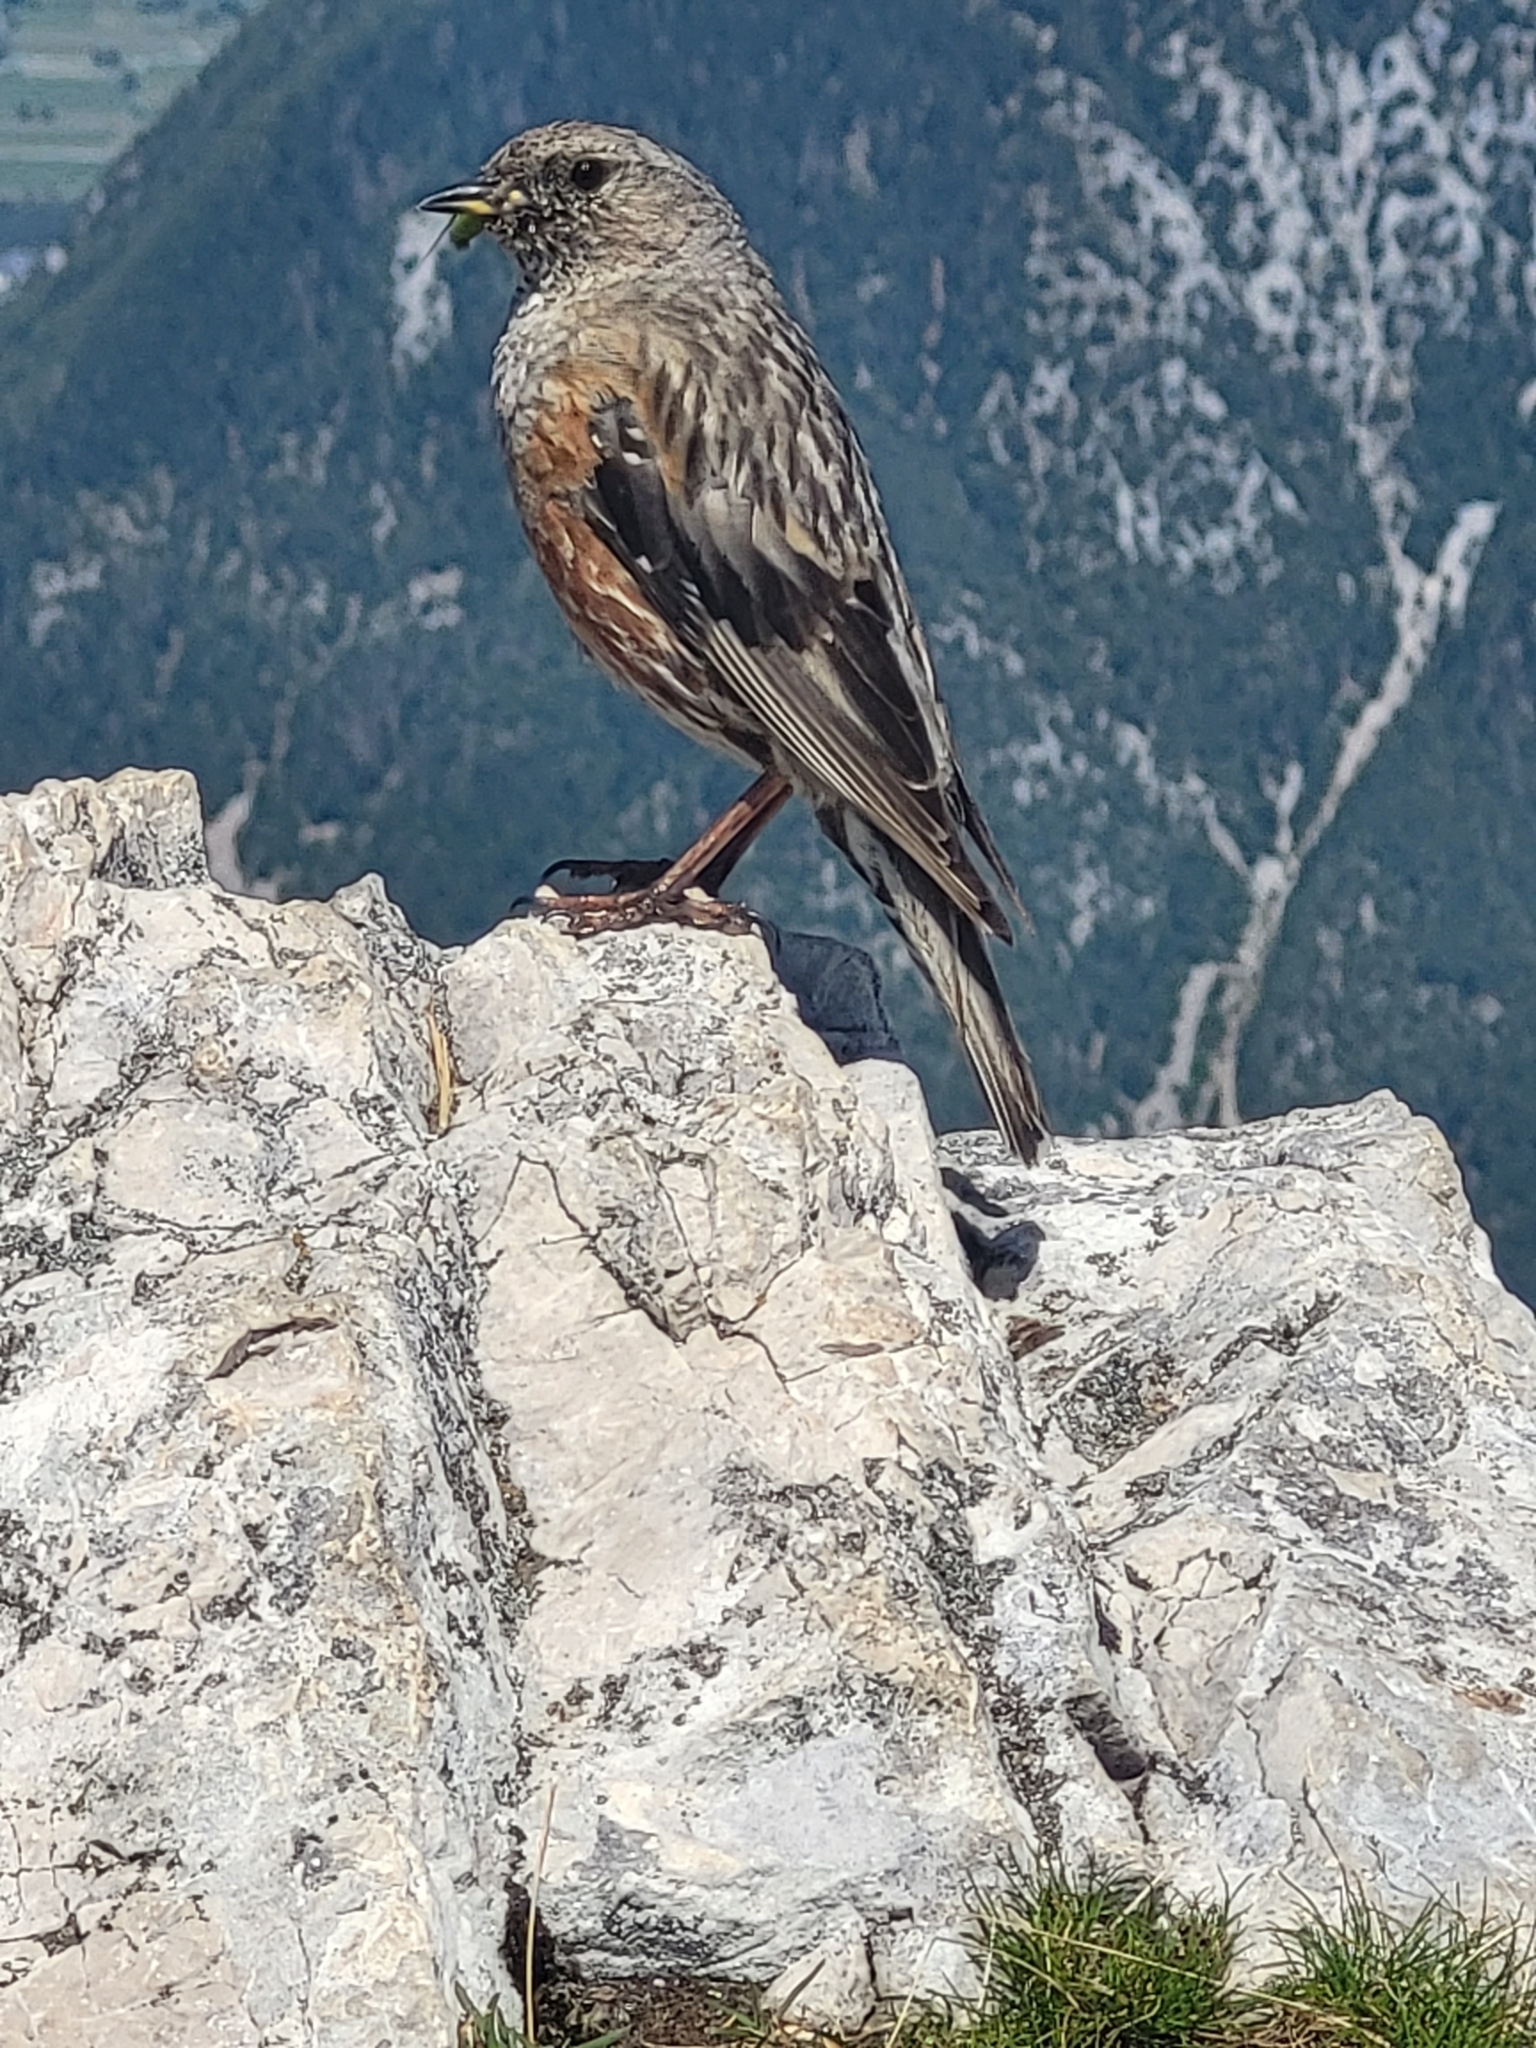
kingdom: Animalia
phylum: Chordata
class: Aves
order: Passeriformes
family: Prunellidae
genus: Prunella
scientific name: Prunella collaris
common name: Alpine accentor
